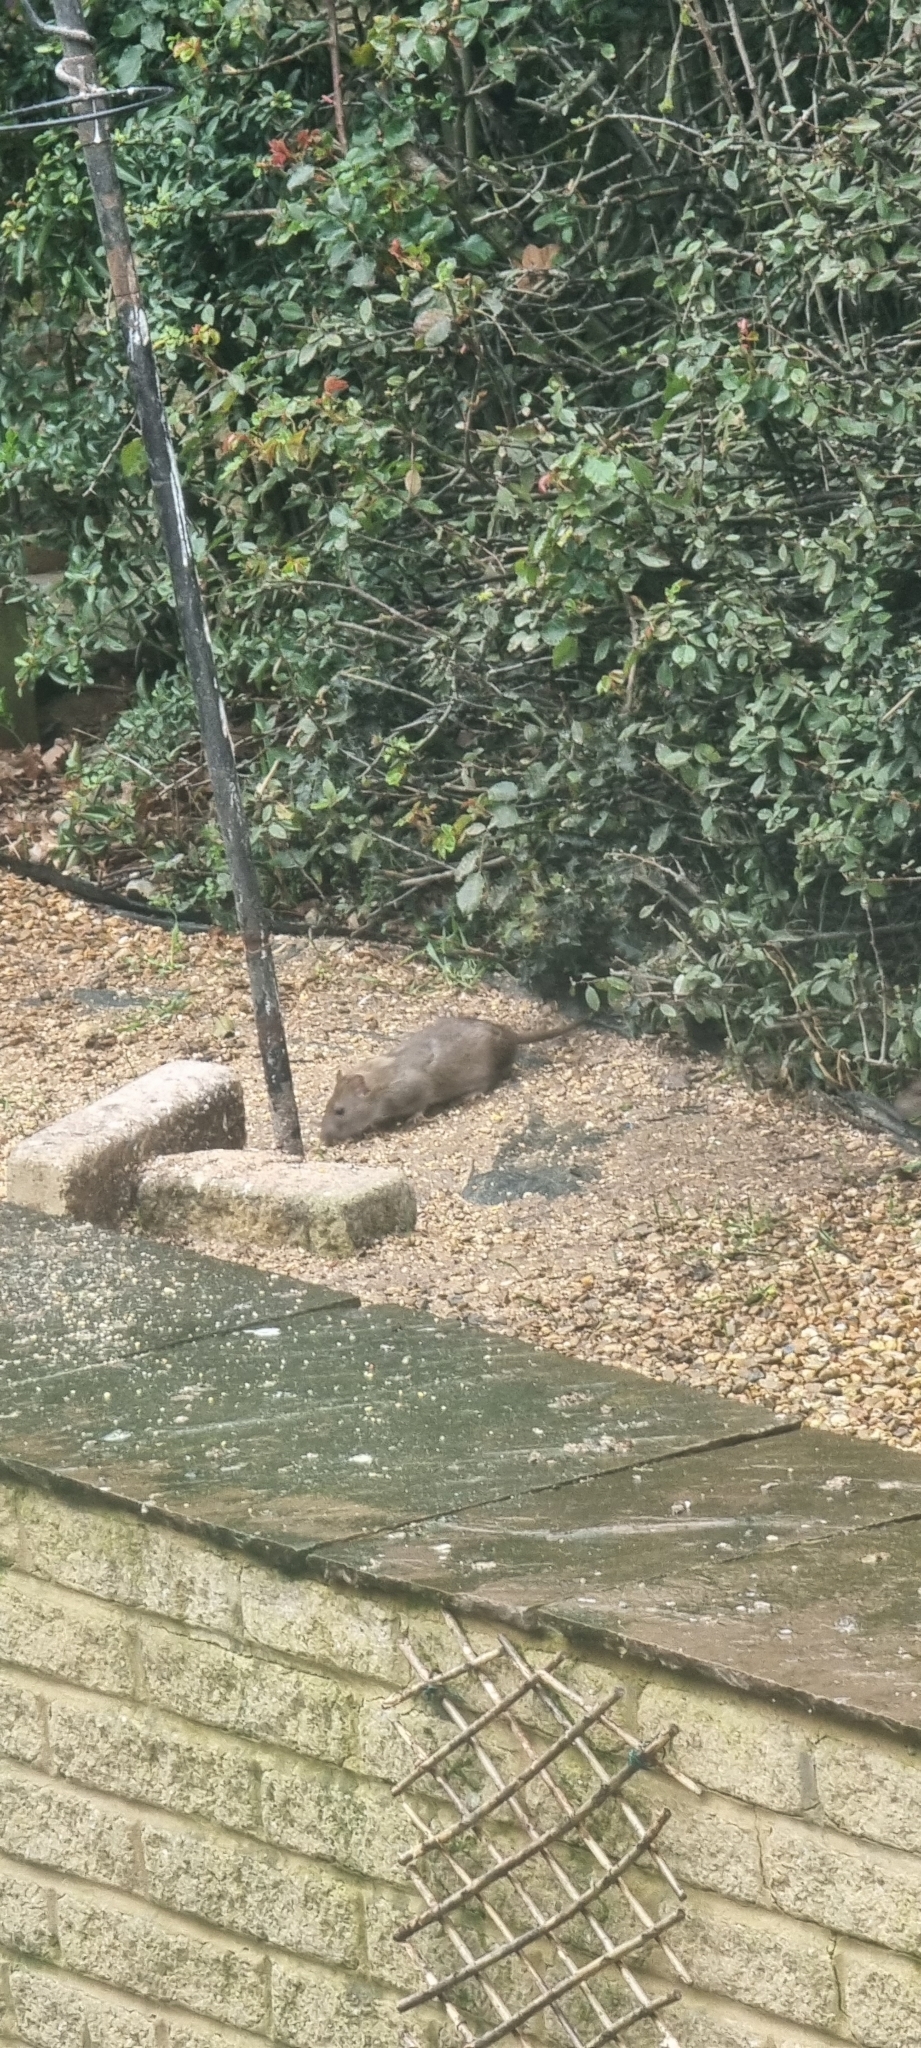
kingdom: Animalia
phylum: Chordata
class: Mammalia
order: Rodentia
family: Muridae
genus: Rattus
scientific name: Rattus norvegicus
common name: Brown rat
